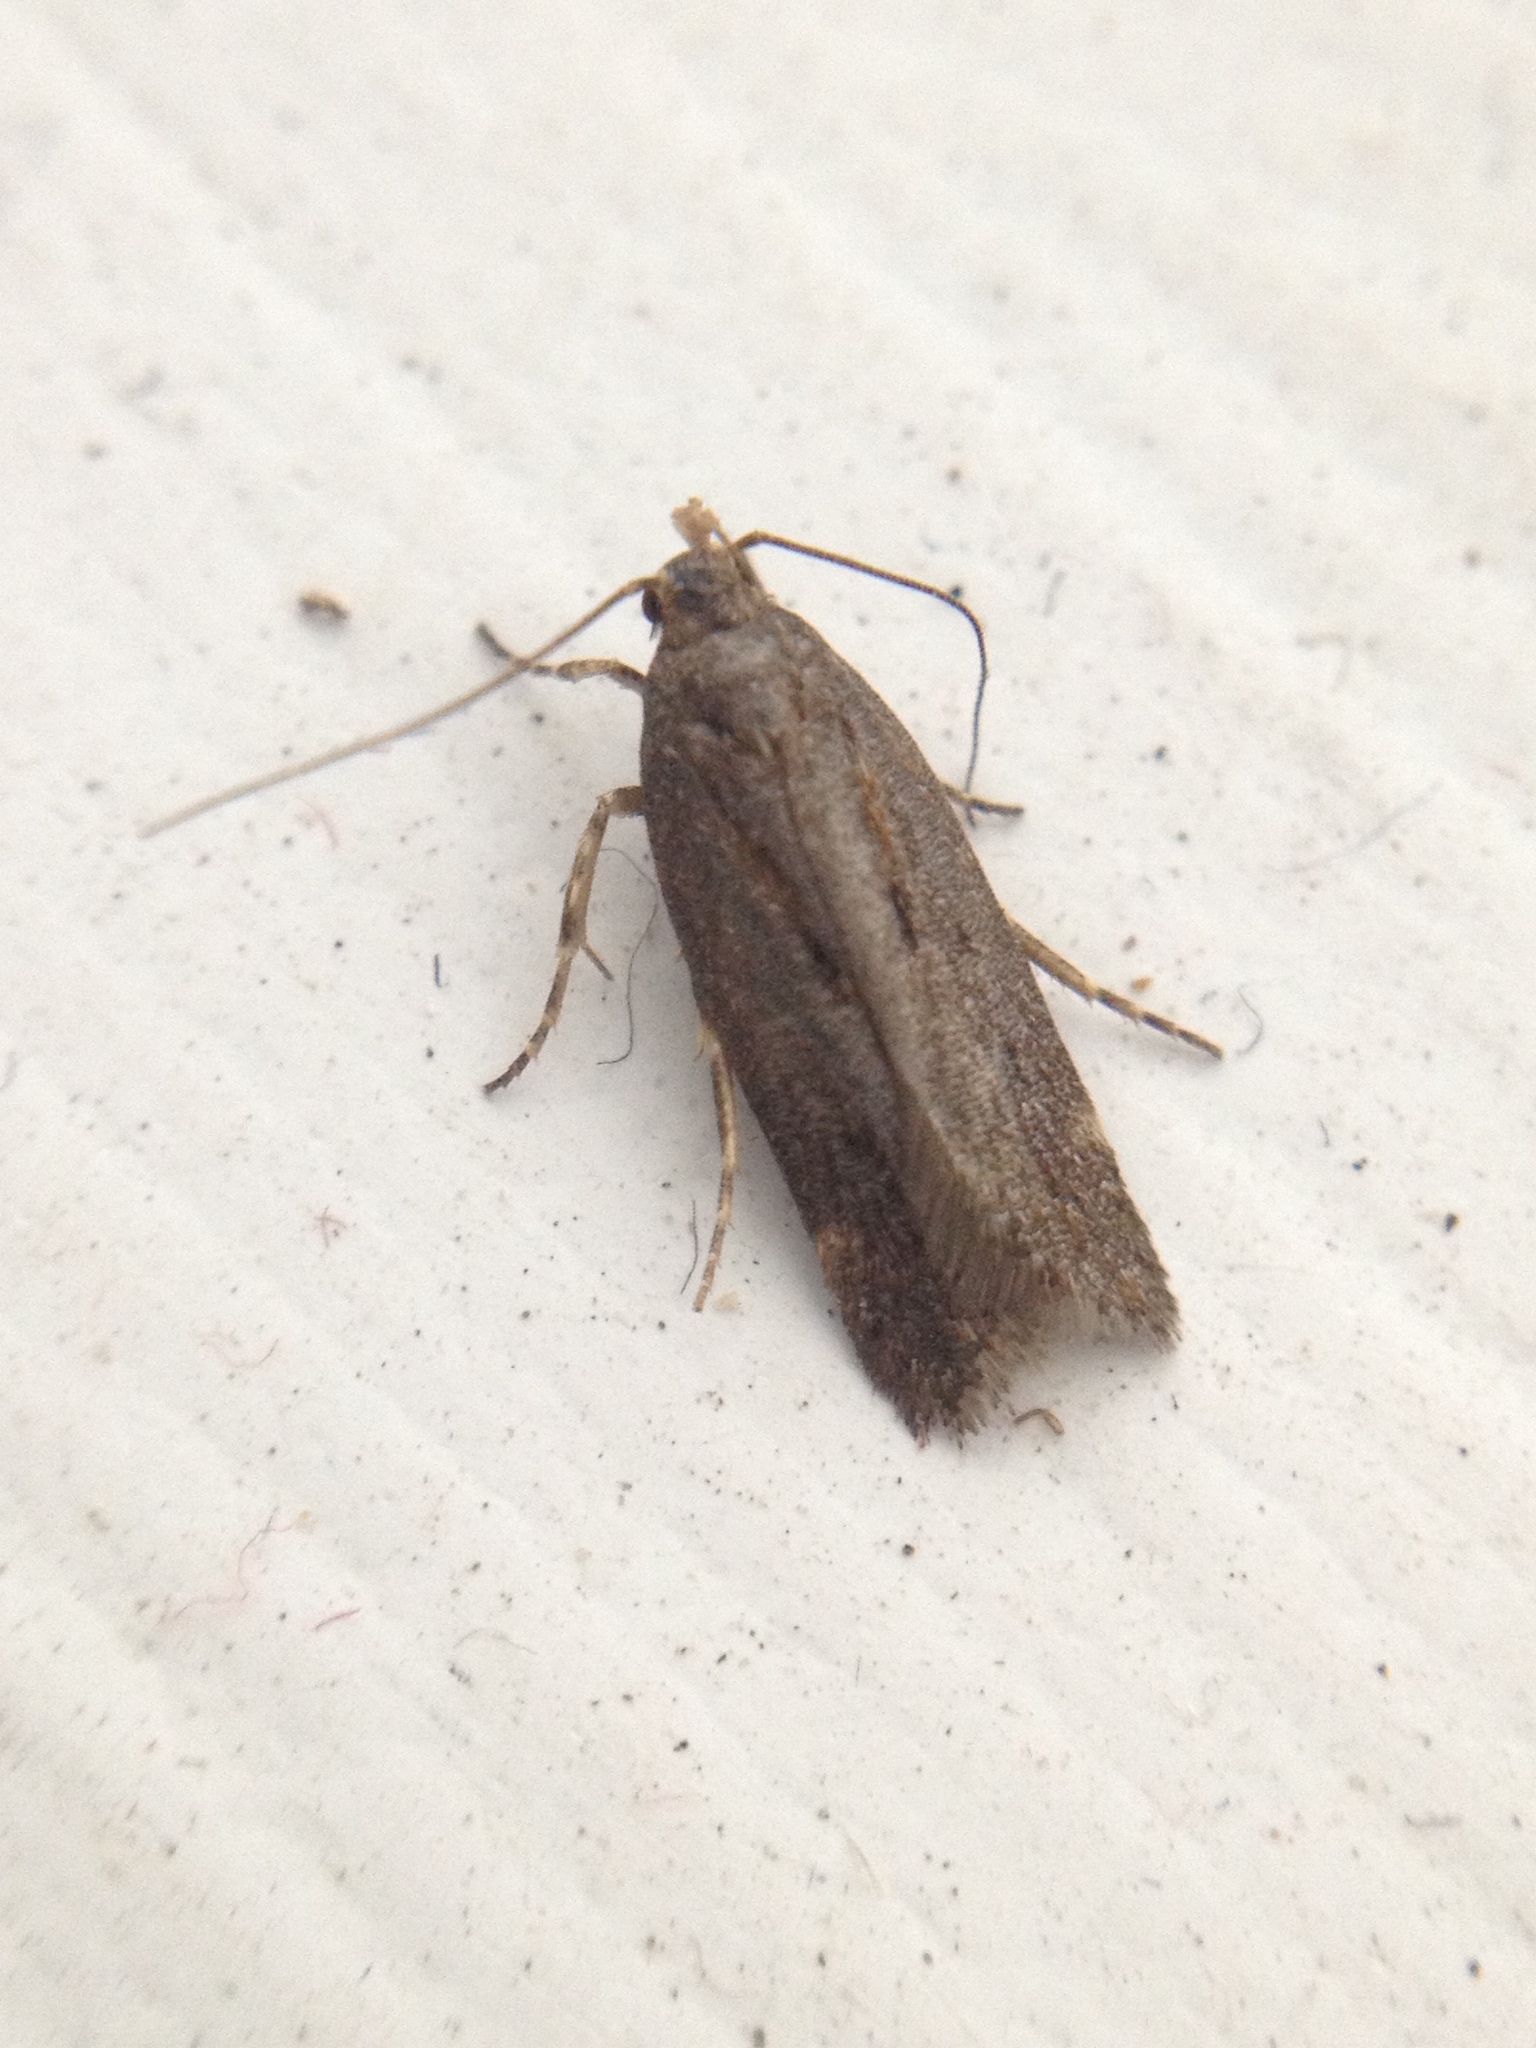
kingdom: Animalia
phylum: Arthropoda
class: Insecta
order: Lepidoptera
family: Gelechiidae
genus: Aroga
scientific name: Aroga velocella
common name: Dusky groundling
